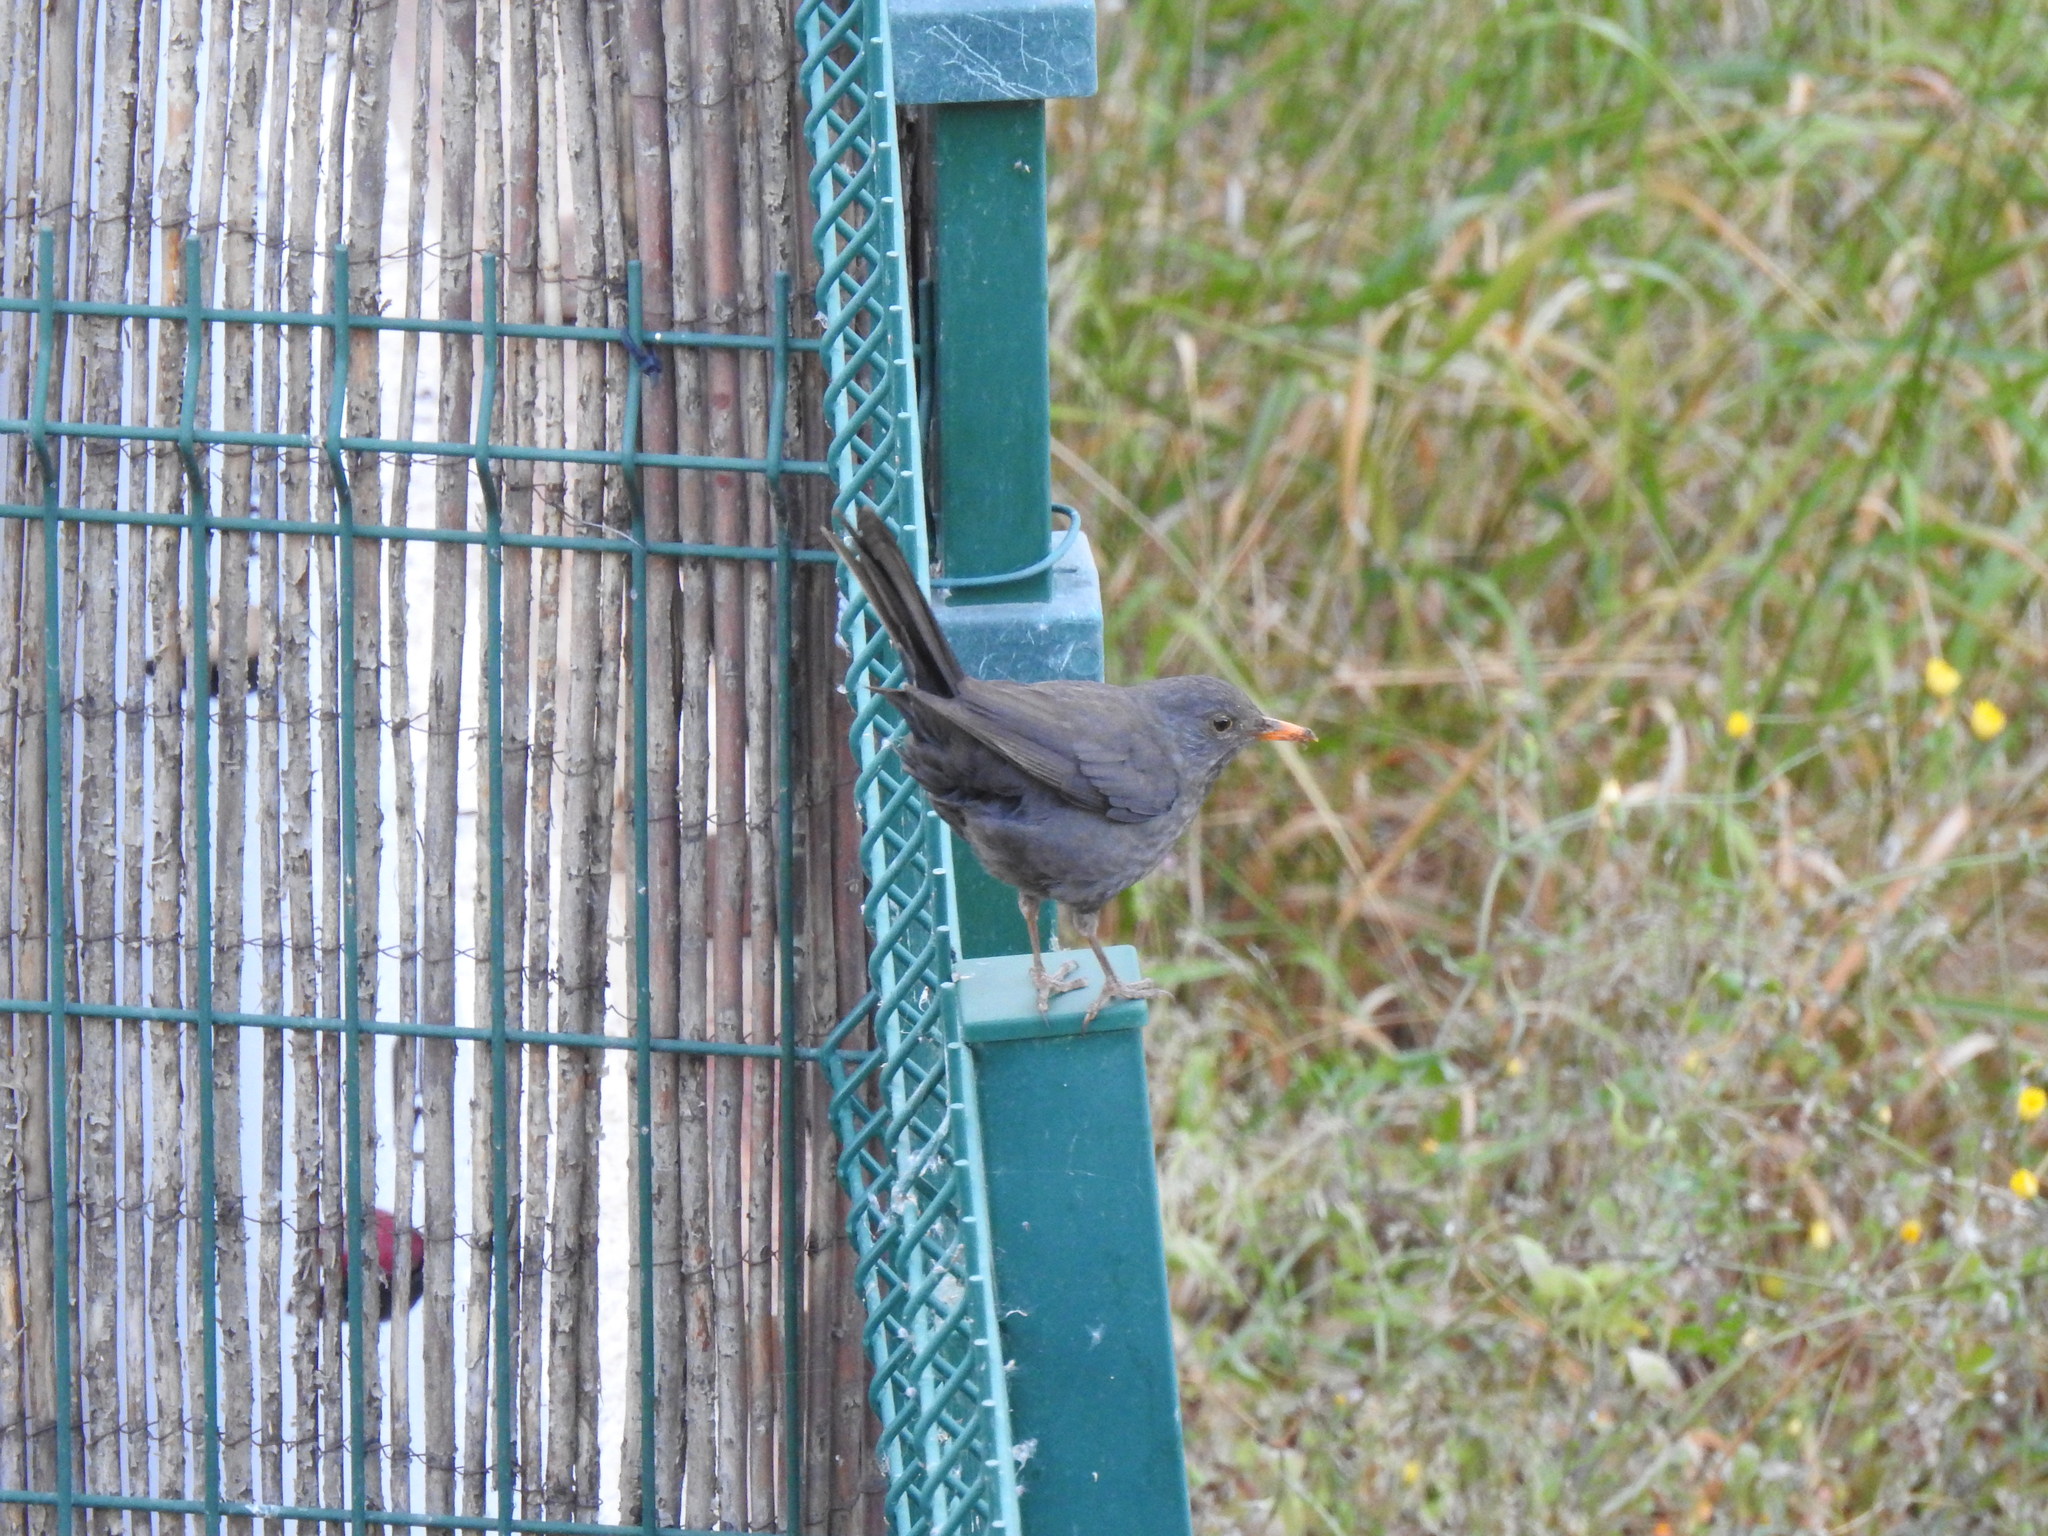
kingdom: Animalia
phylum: Chordata
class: Aves
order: Passeriformes
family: Turdidae
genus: Turdus
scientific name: Turdus merula
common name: Common blackbird
